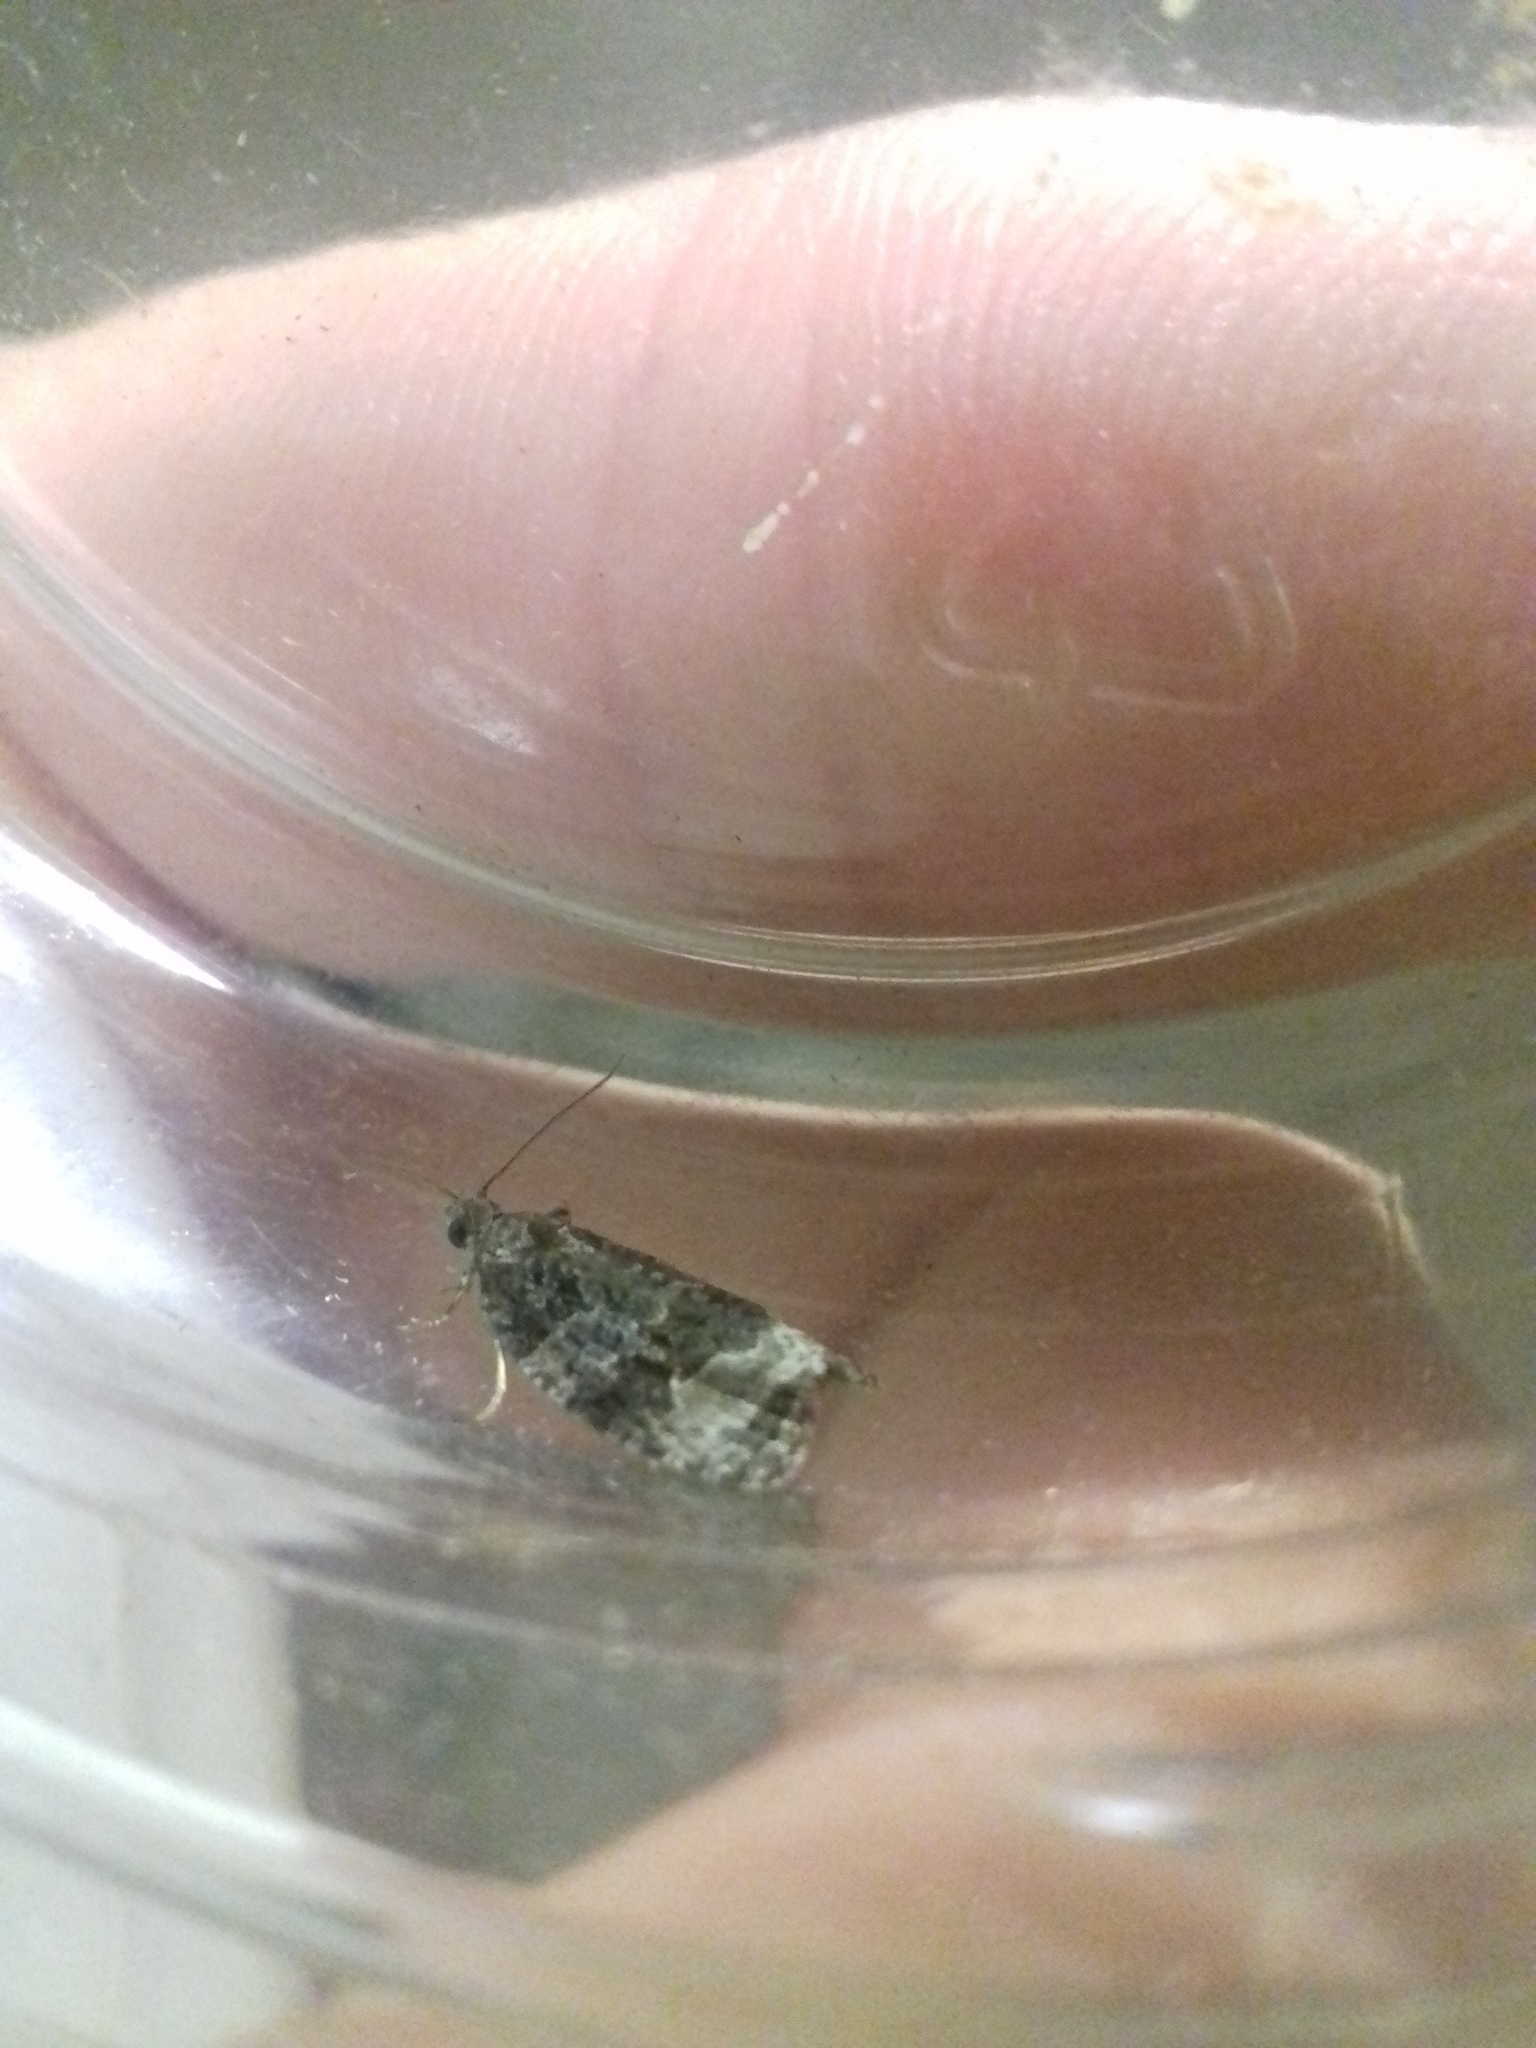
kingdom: Animalia
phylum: Arthropoda
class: Insecta
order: Lepidoptera
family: Tortricidae
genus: Apotomis
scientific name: Apotomis sauciana
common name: Bilberry marble
